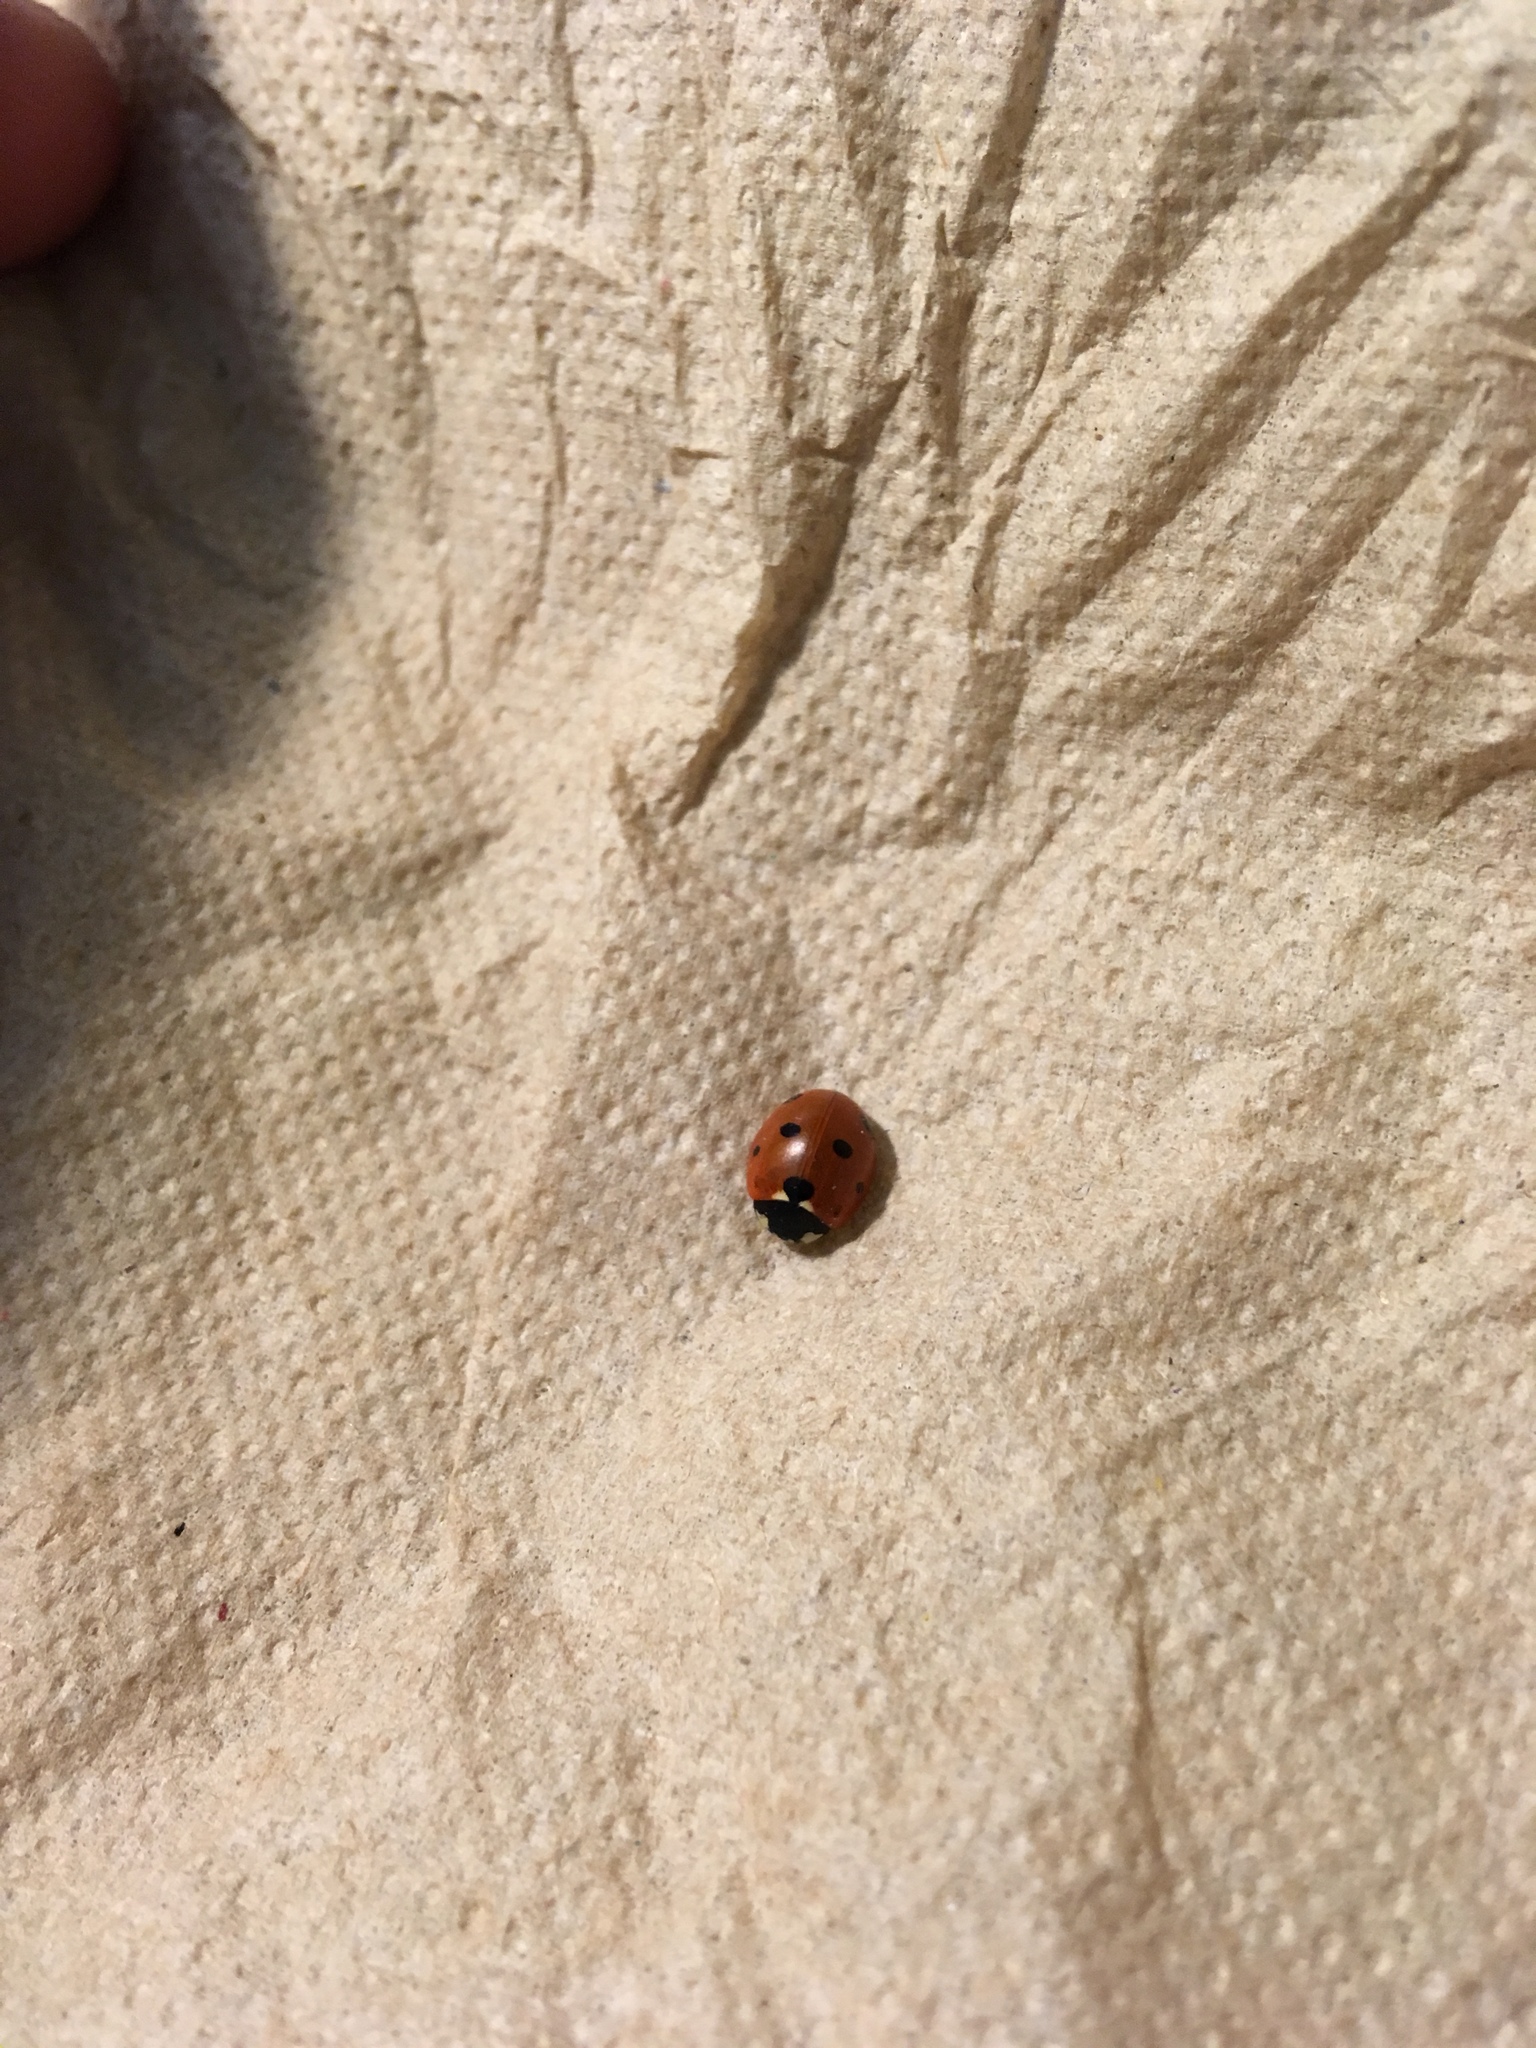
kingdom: Animalia
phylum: Arthropoda
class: Insecta
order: Coleoptera
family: Coccinellidae
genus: Coccinella
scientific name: Coccinella septempunctata
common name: Sevenspotted lady beetle
